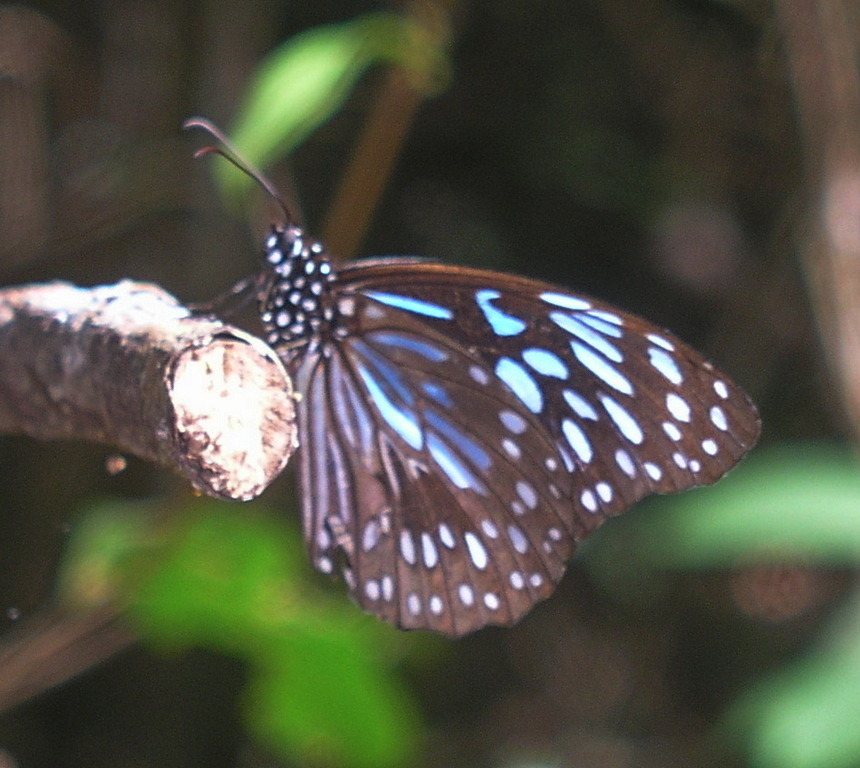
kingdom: Animalia
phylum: Arthropoda
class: Insecta
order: Lepidoptera
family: Nymphalidae
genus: Tirumala
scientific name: Tirumala hamata
